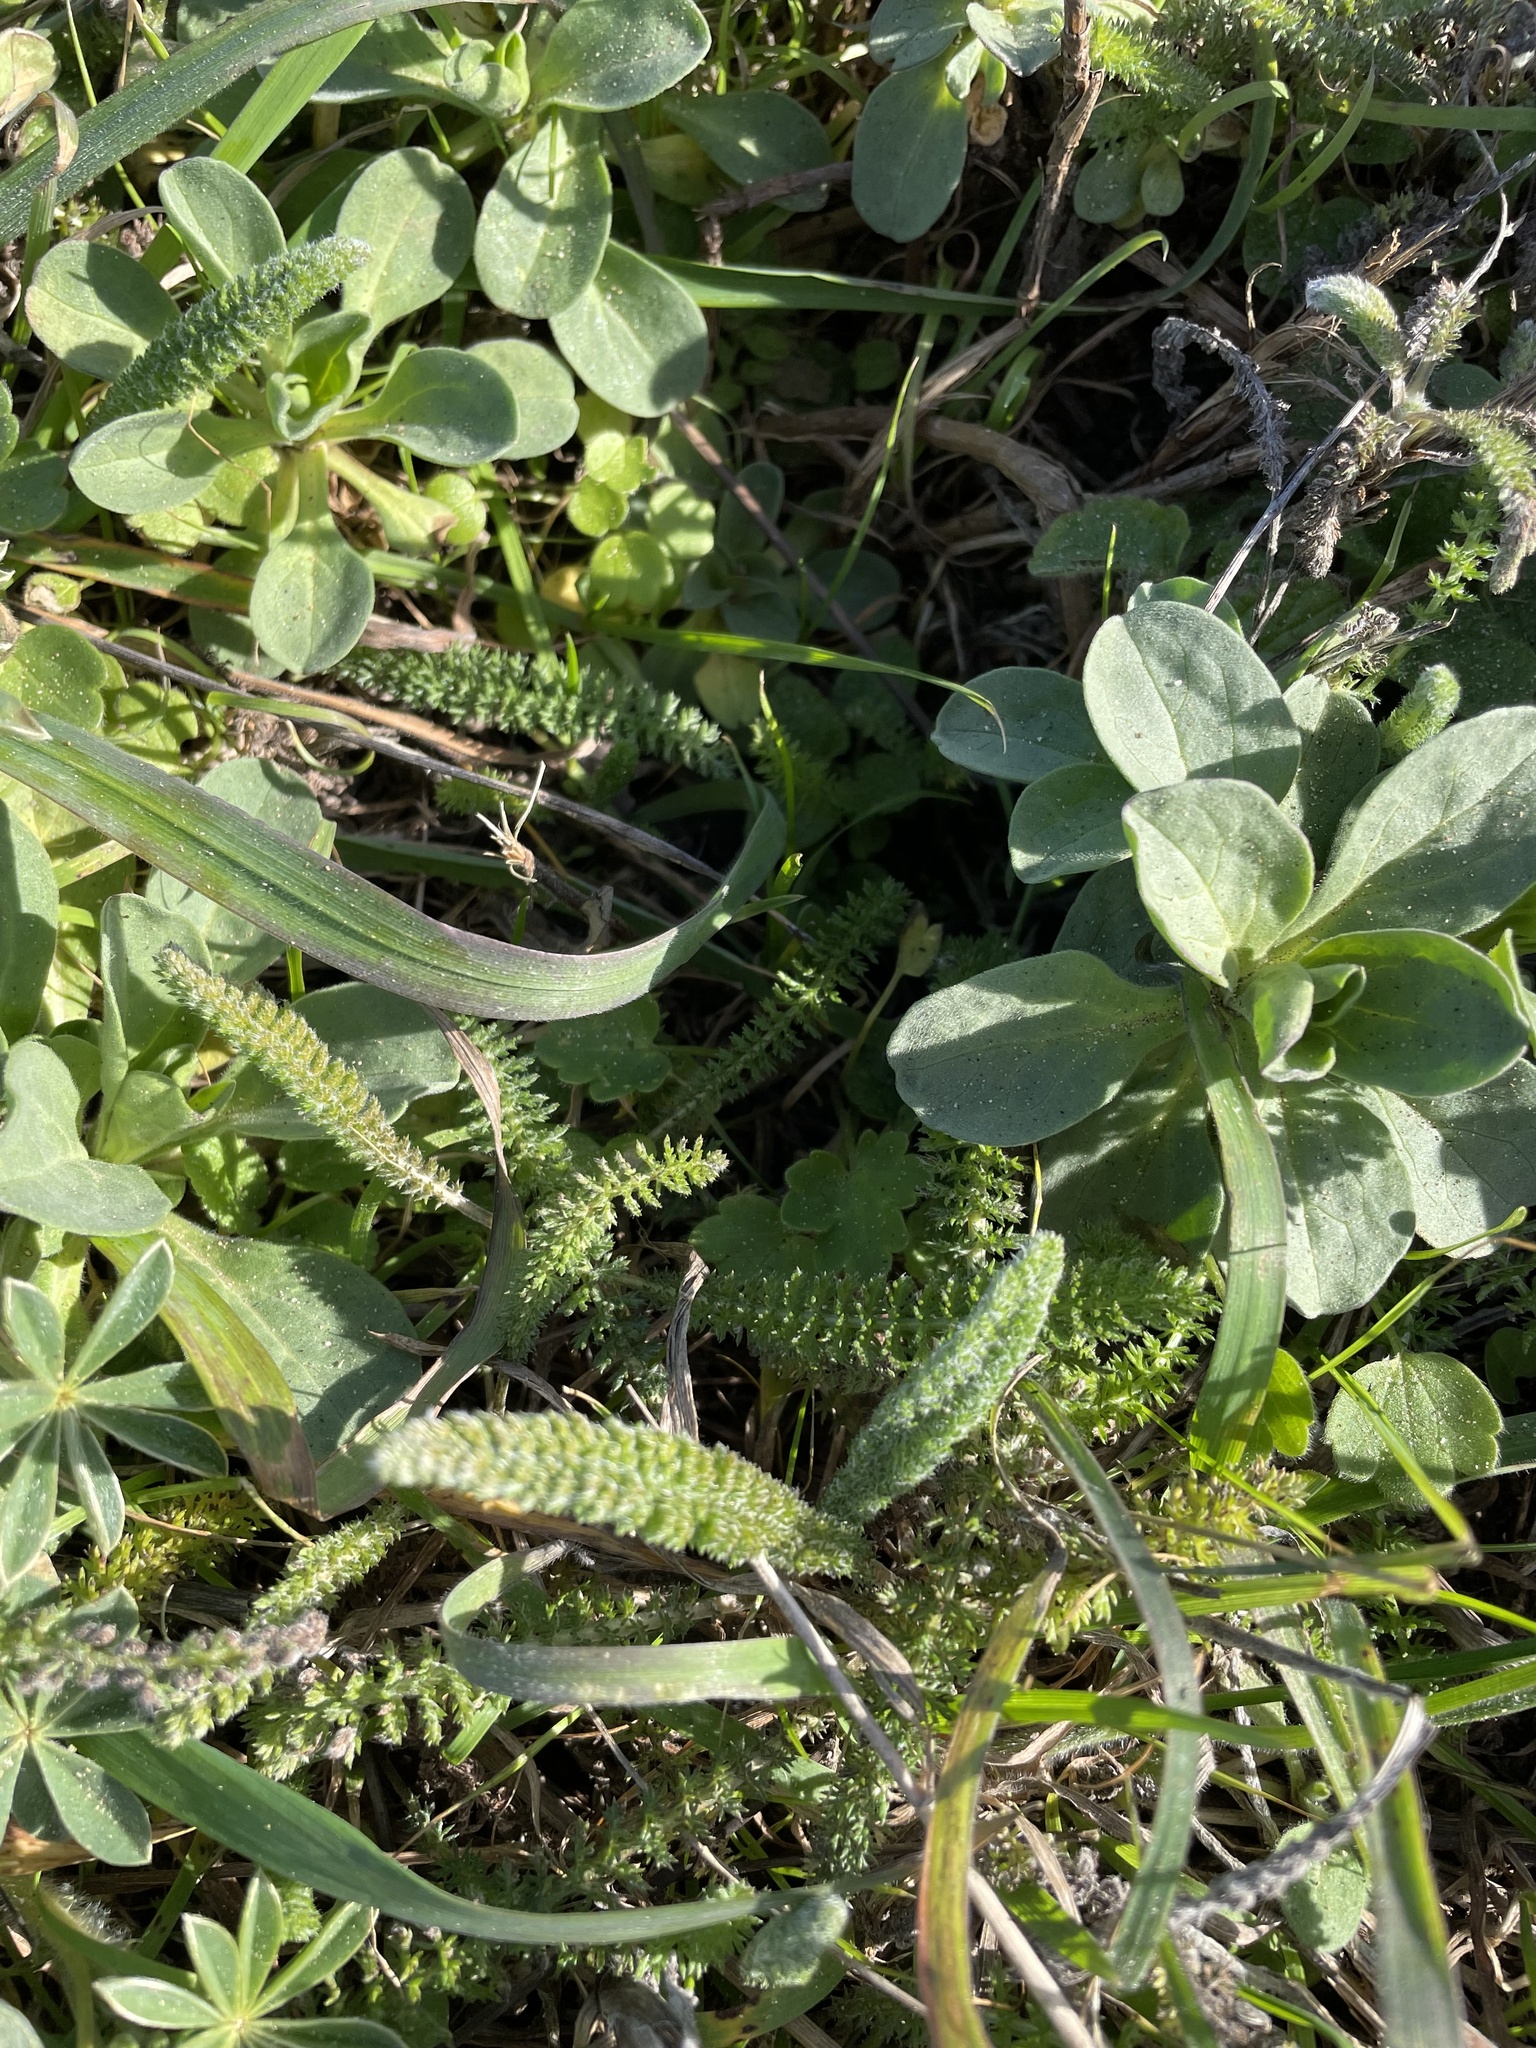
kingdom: Plantae
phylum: Tracheophyta
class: Magnoliopsida
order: Asterales
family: Asteraceae
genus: Achillea
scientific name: Achillea millefolium
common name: Yarrow
